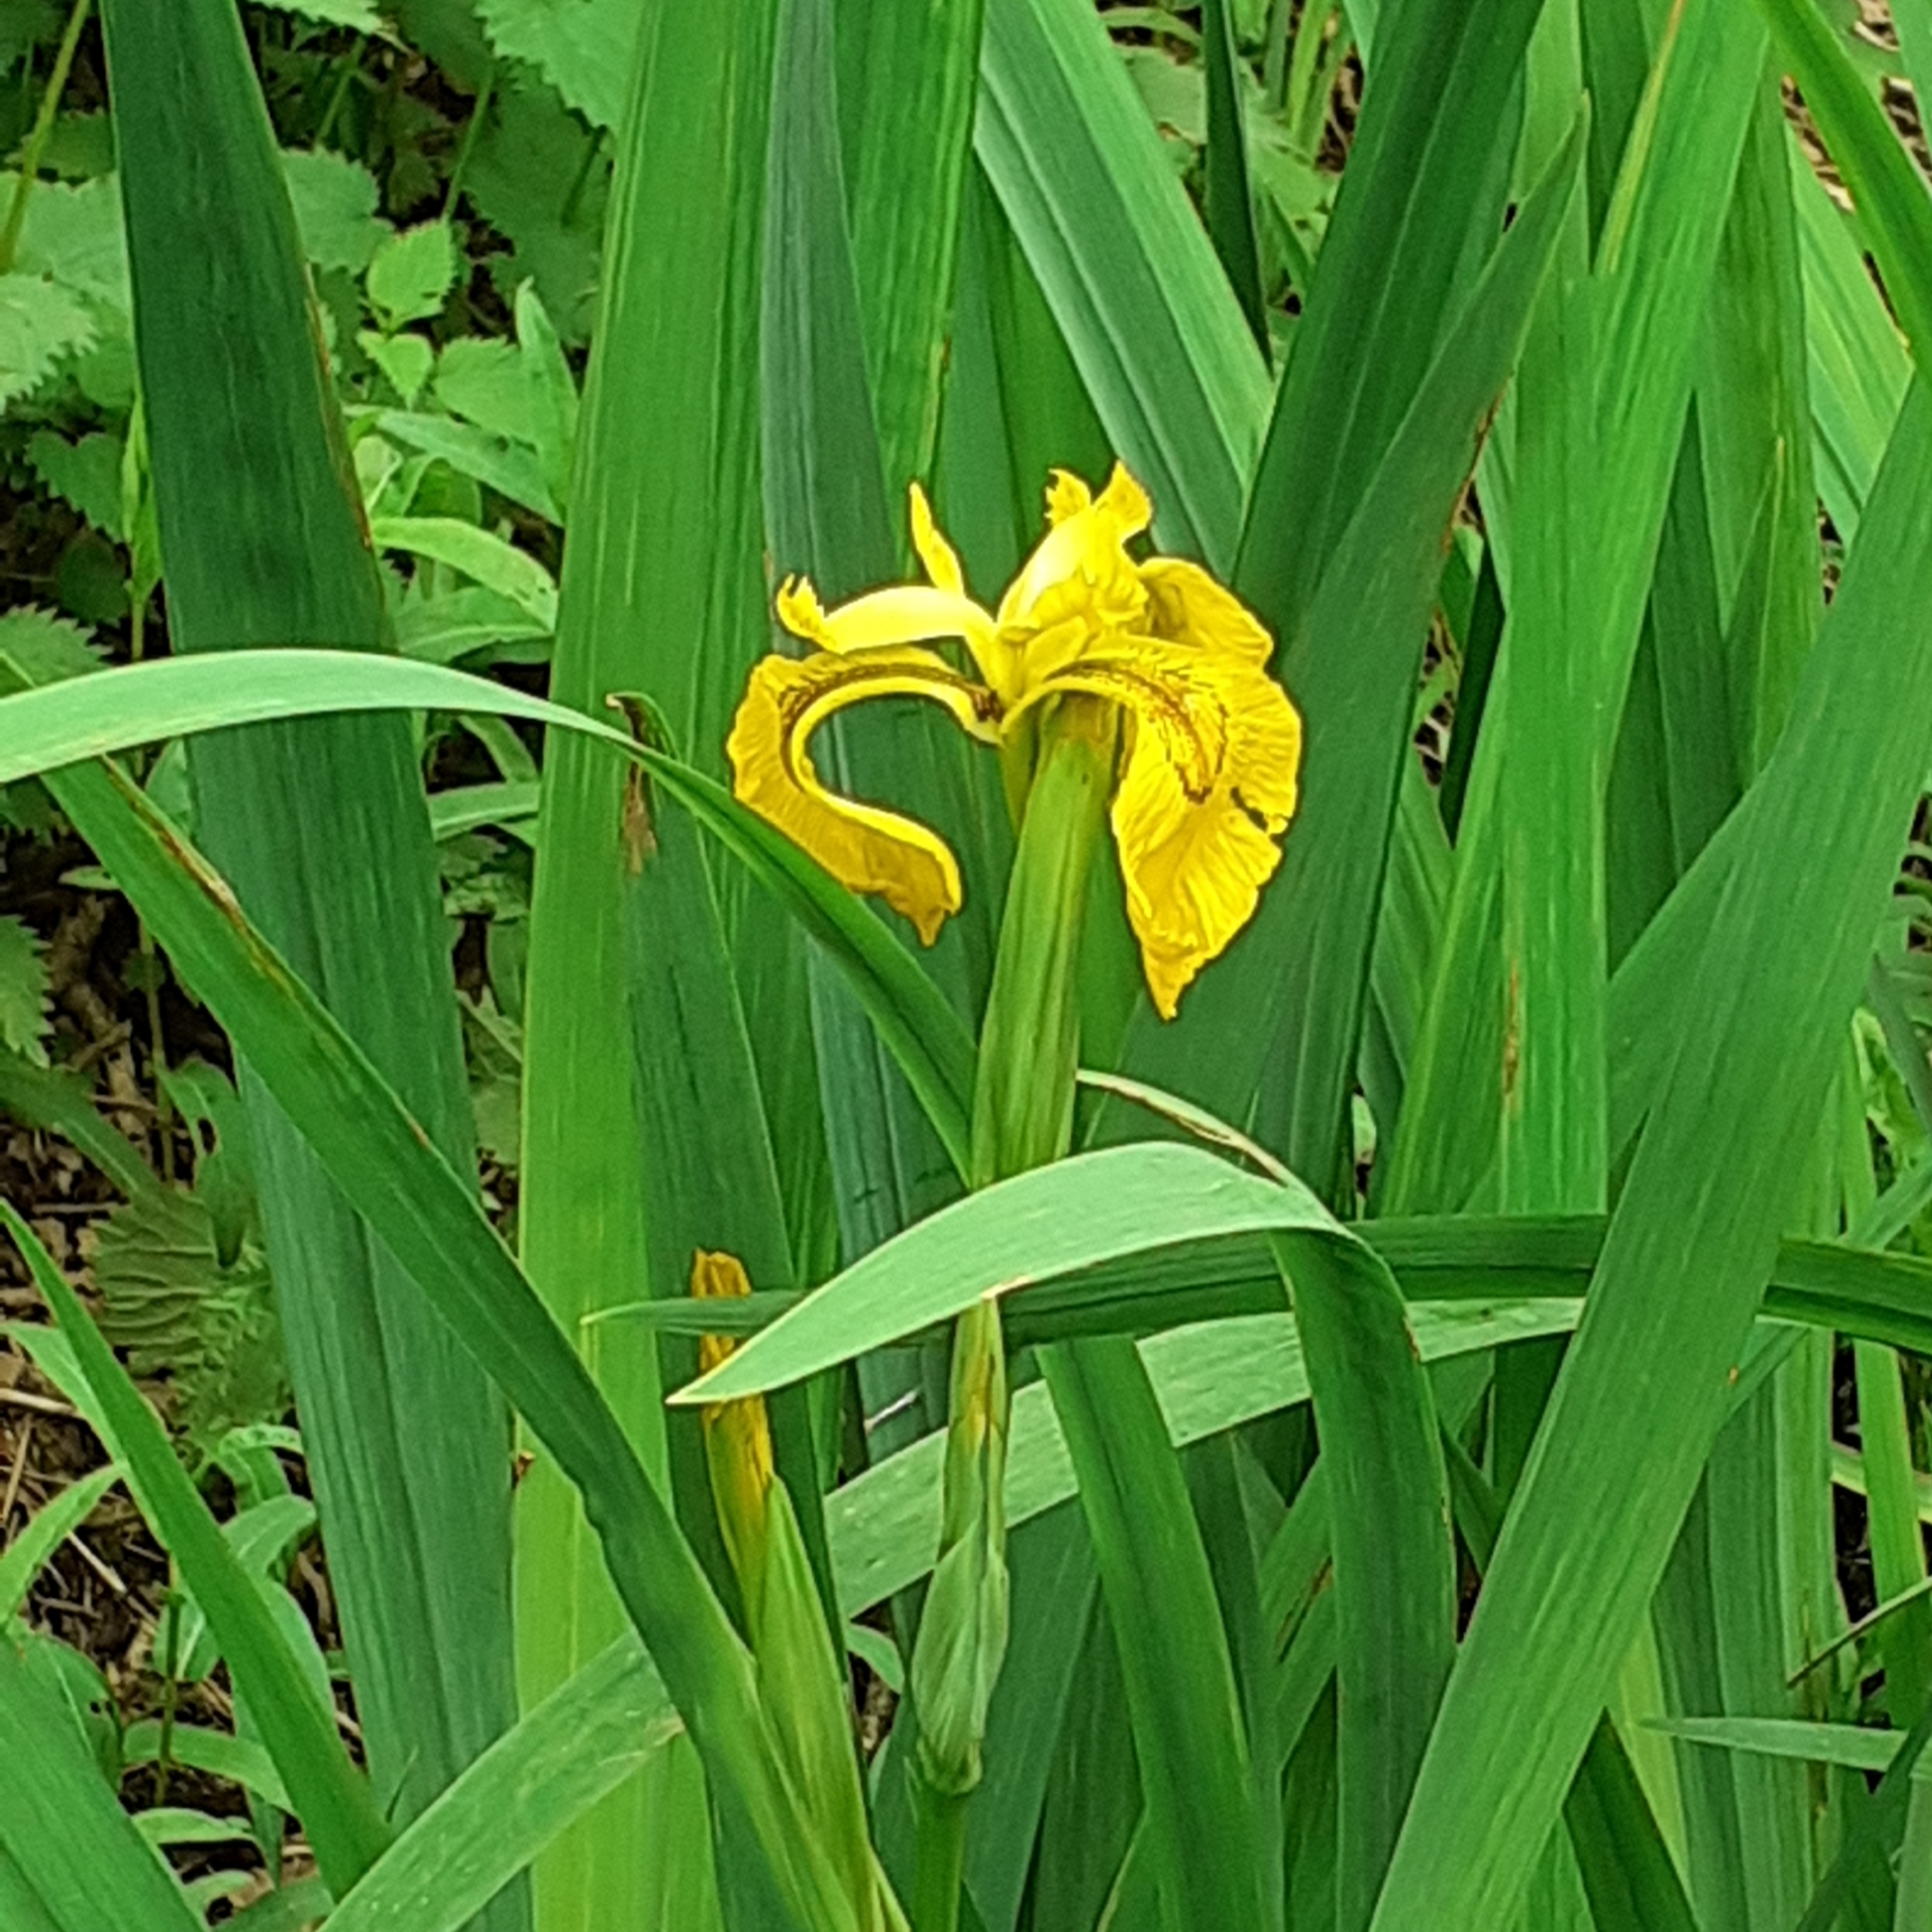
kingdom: Plantae
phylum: Tracheophyta
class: Liliopsida
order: Asparagales
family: Iridaceae
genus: Iris
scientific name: Iris pseudacorus
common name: Yellow flag
